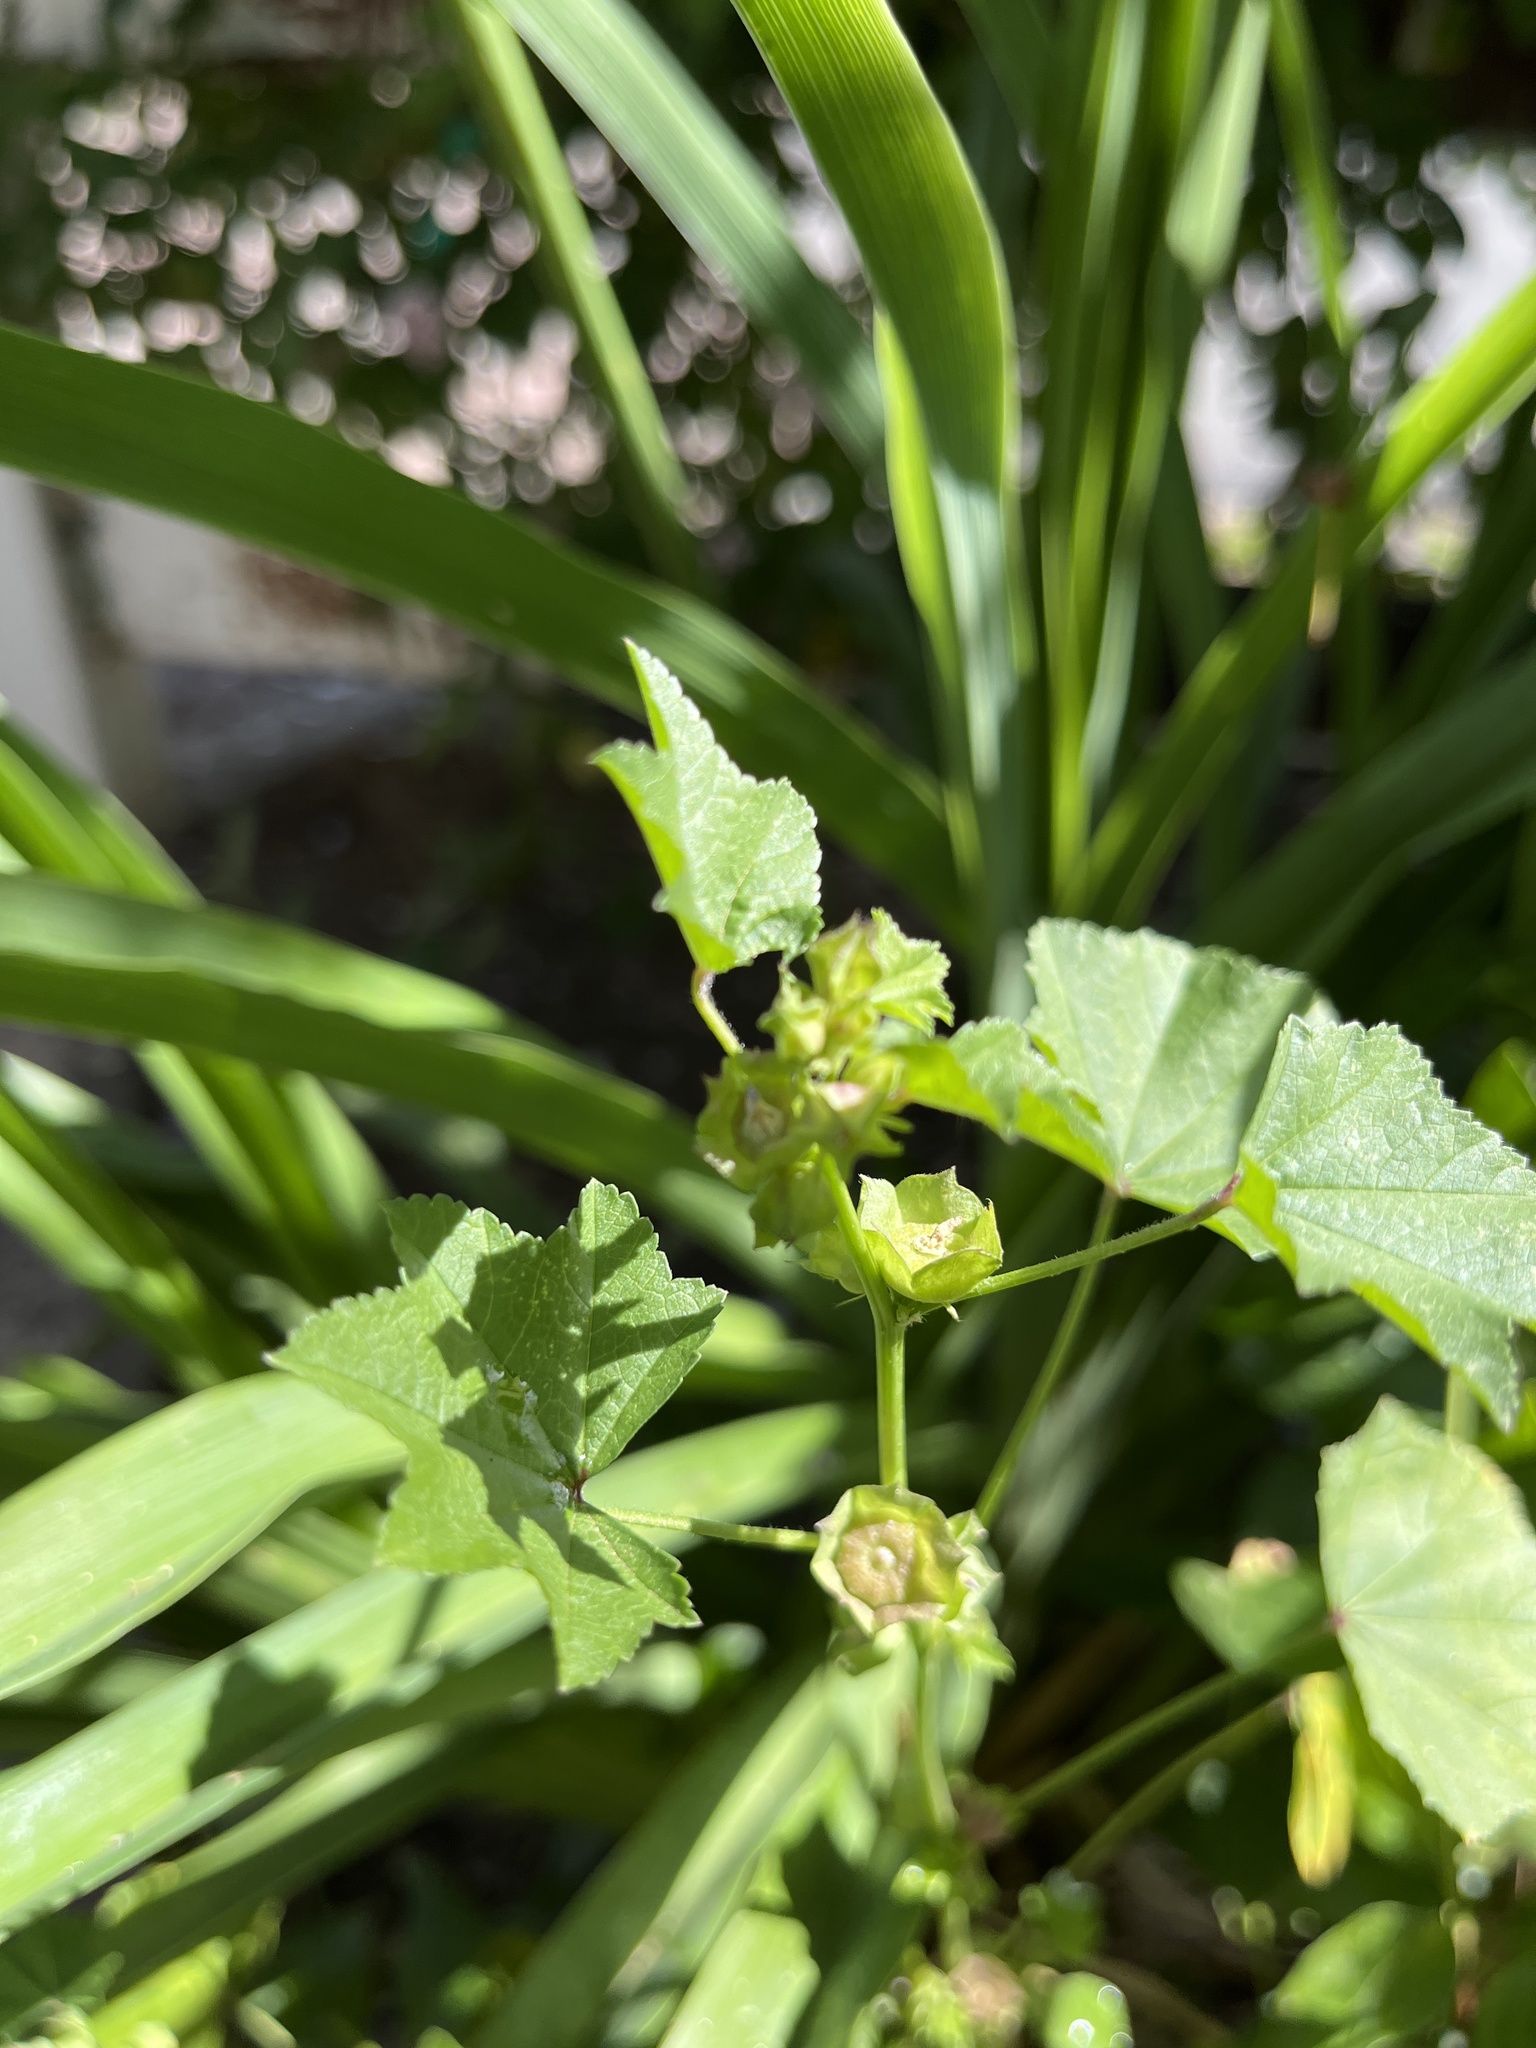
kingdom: Plantae
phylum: Tracheophyta
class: Magnoliopsida
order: Malvales
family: Malvaceae
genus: Malva
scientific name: Malva parviflora
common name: Least mallow
